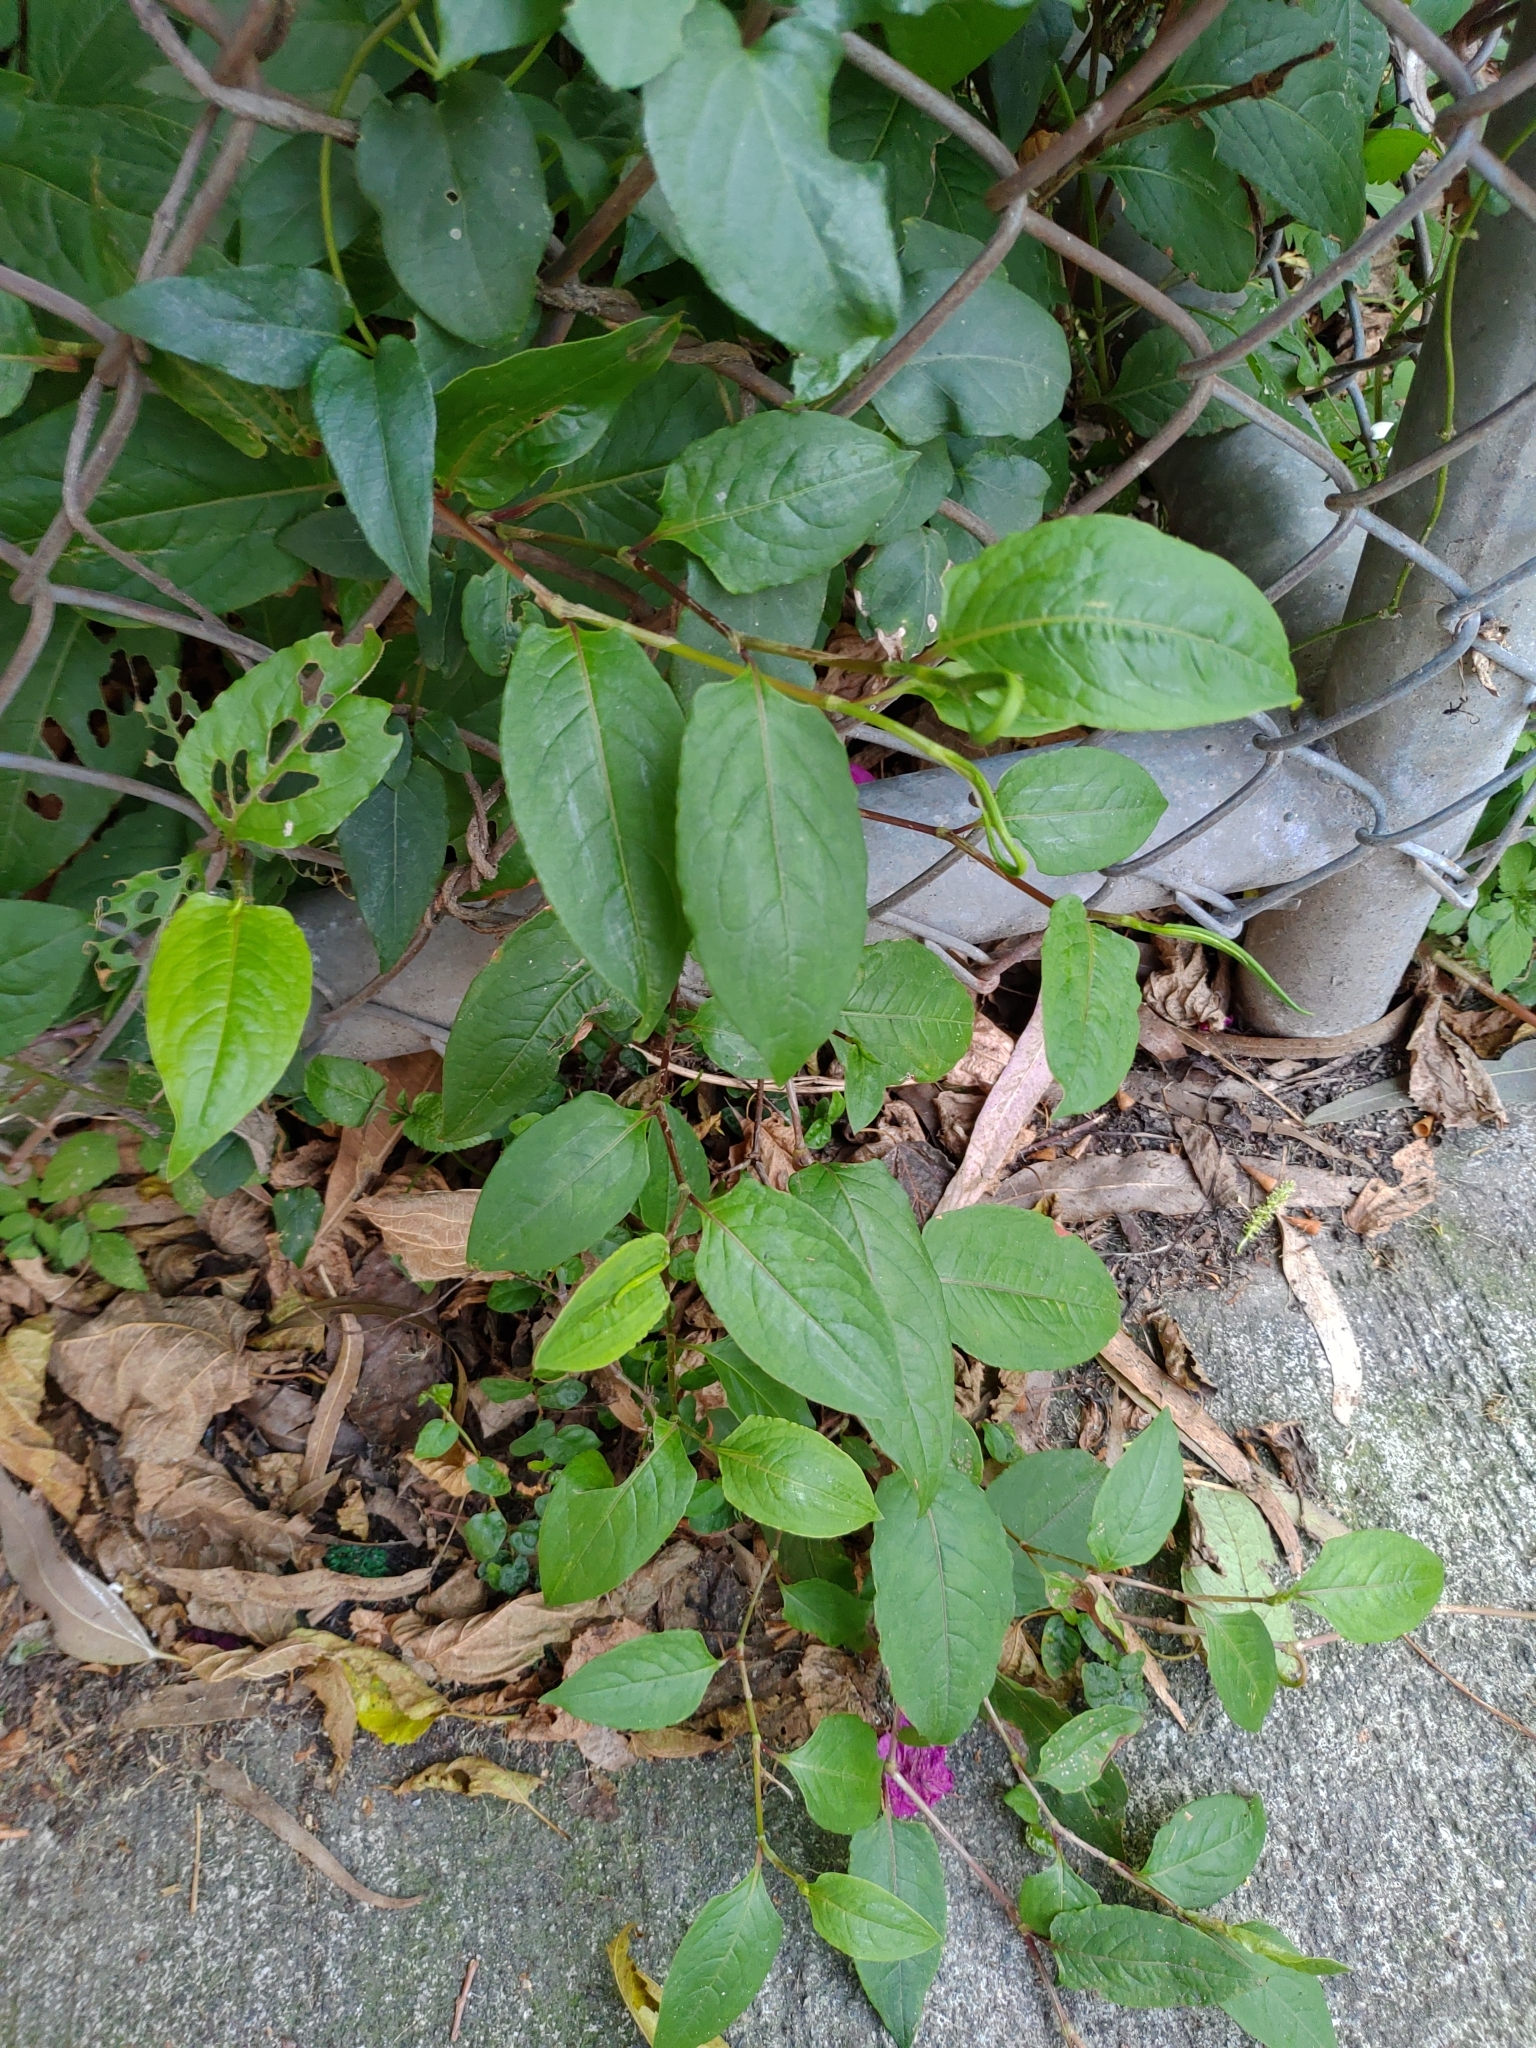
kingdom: Plantae
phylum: Tracheophyta
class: Magnoliopsida
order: Caryophyllales
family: Polygonaceae
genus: Persicaria
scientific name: Persicaria chinensis
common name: Chinese knotweed
